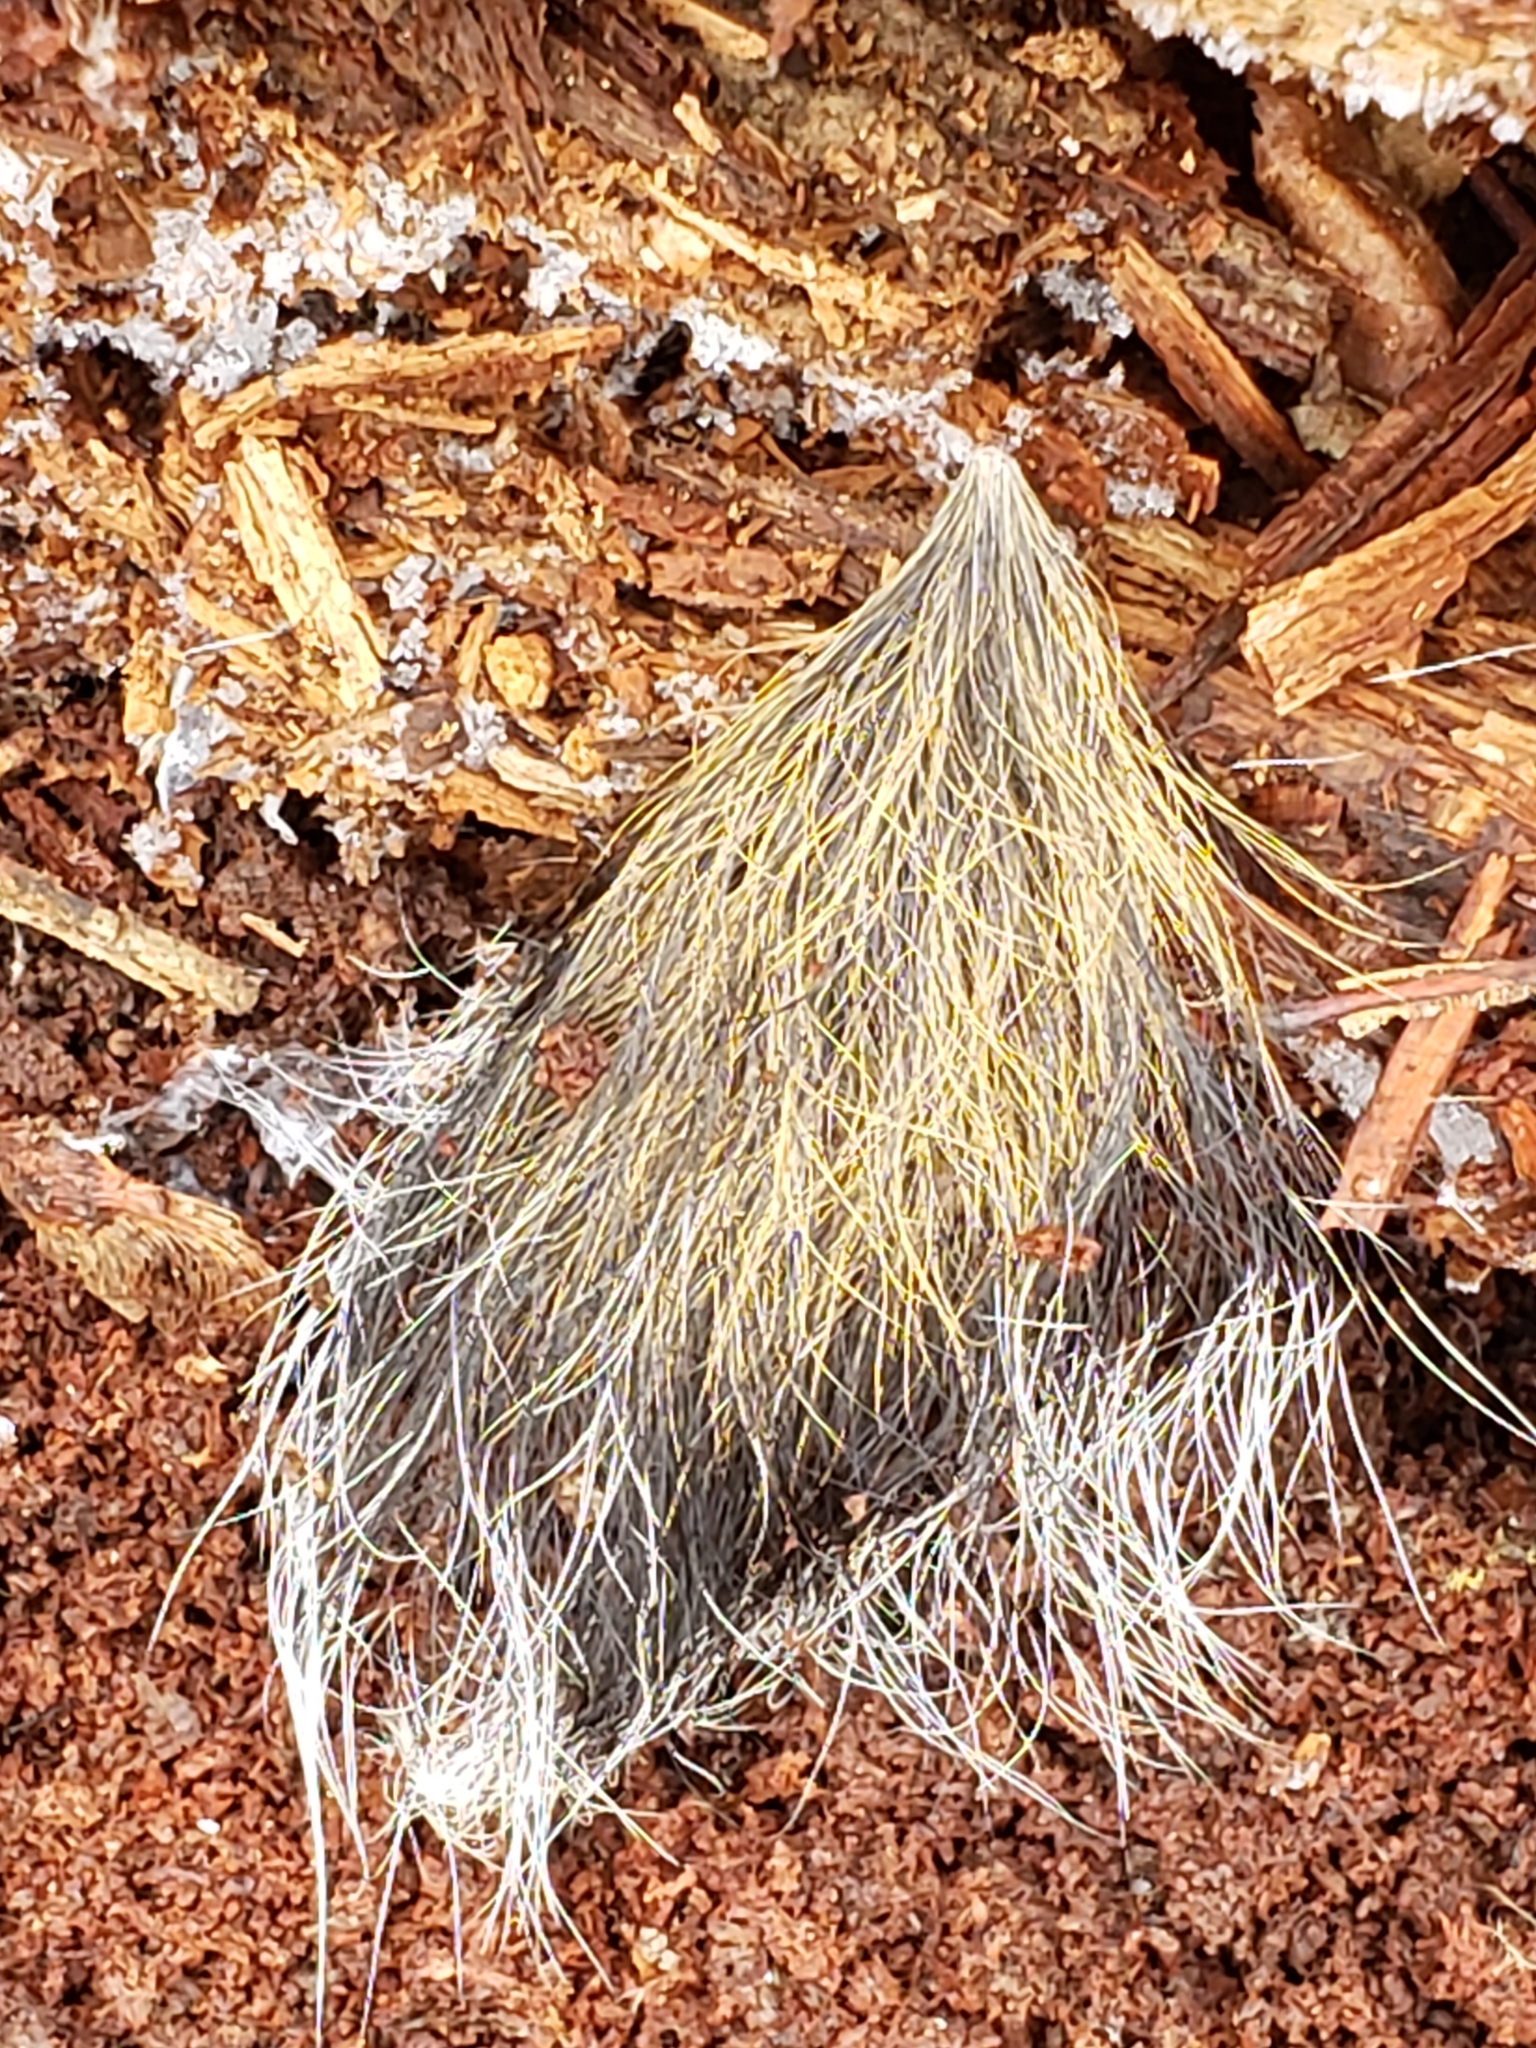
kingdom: Animalia
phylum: Chordata
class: Mammalia
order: Rodentia
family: Sciuridae
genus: Sciurus
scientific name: Sciurus carolinensis
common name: Eastern gray squirrel
